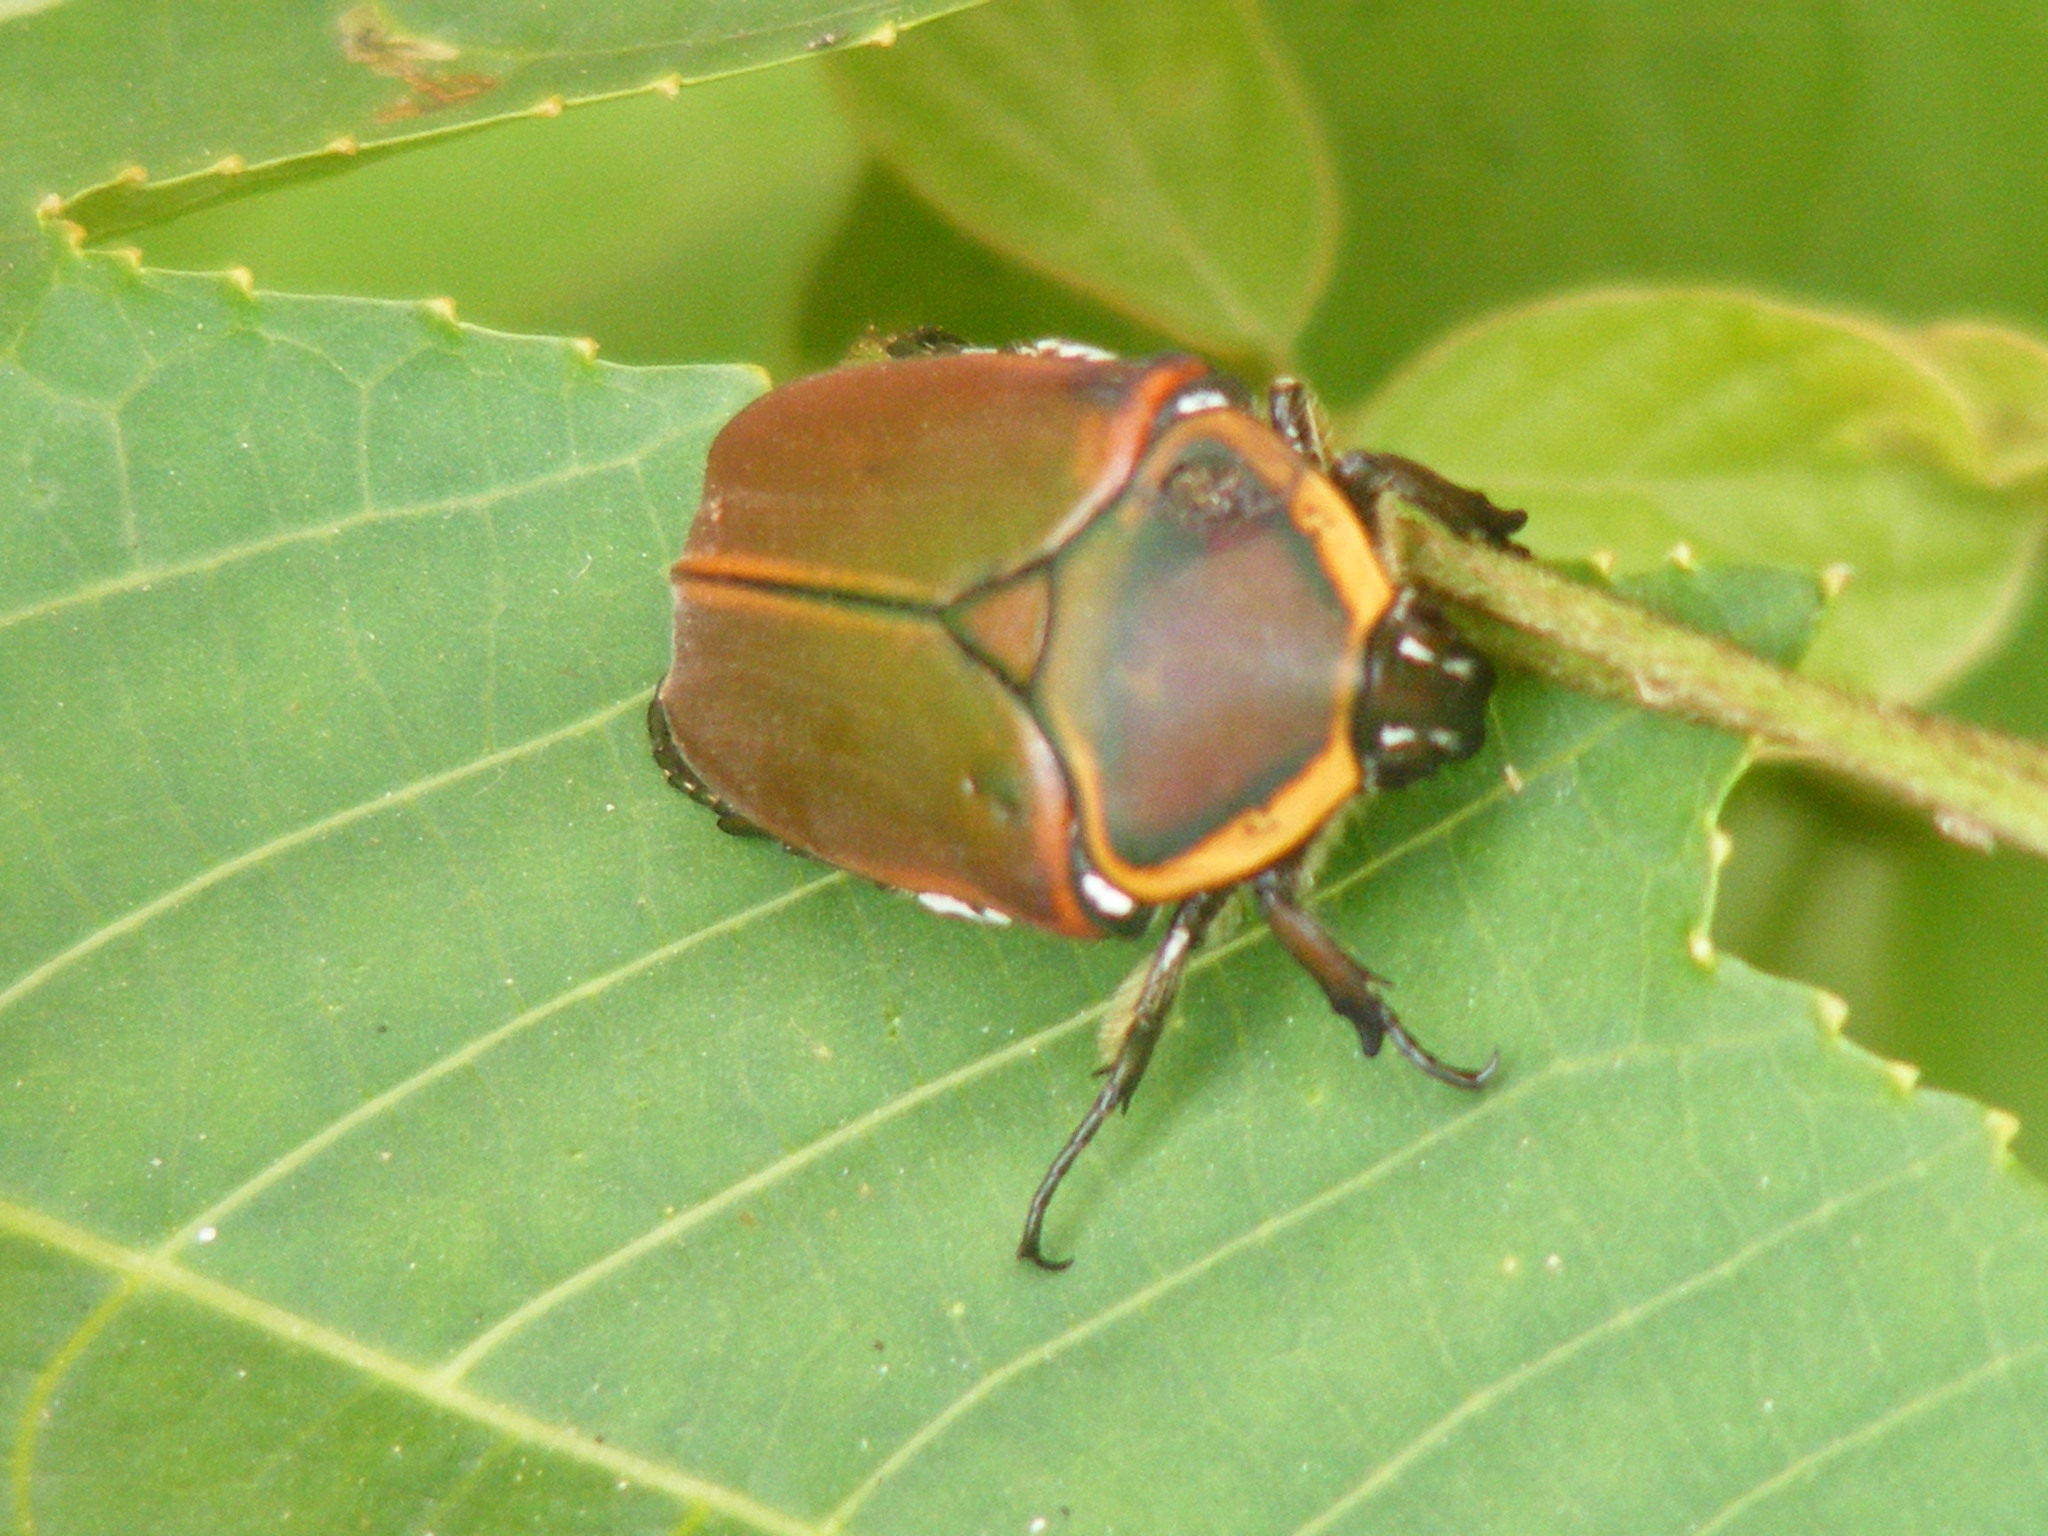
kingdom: Animalia
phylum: Arthropoda
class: Insecta
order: Coleoptera
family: Scarabaeidae
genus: Dischista
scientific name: Dischista cincta
